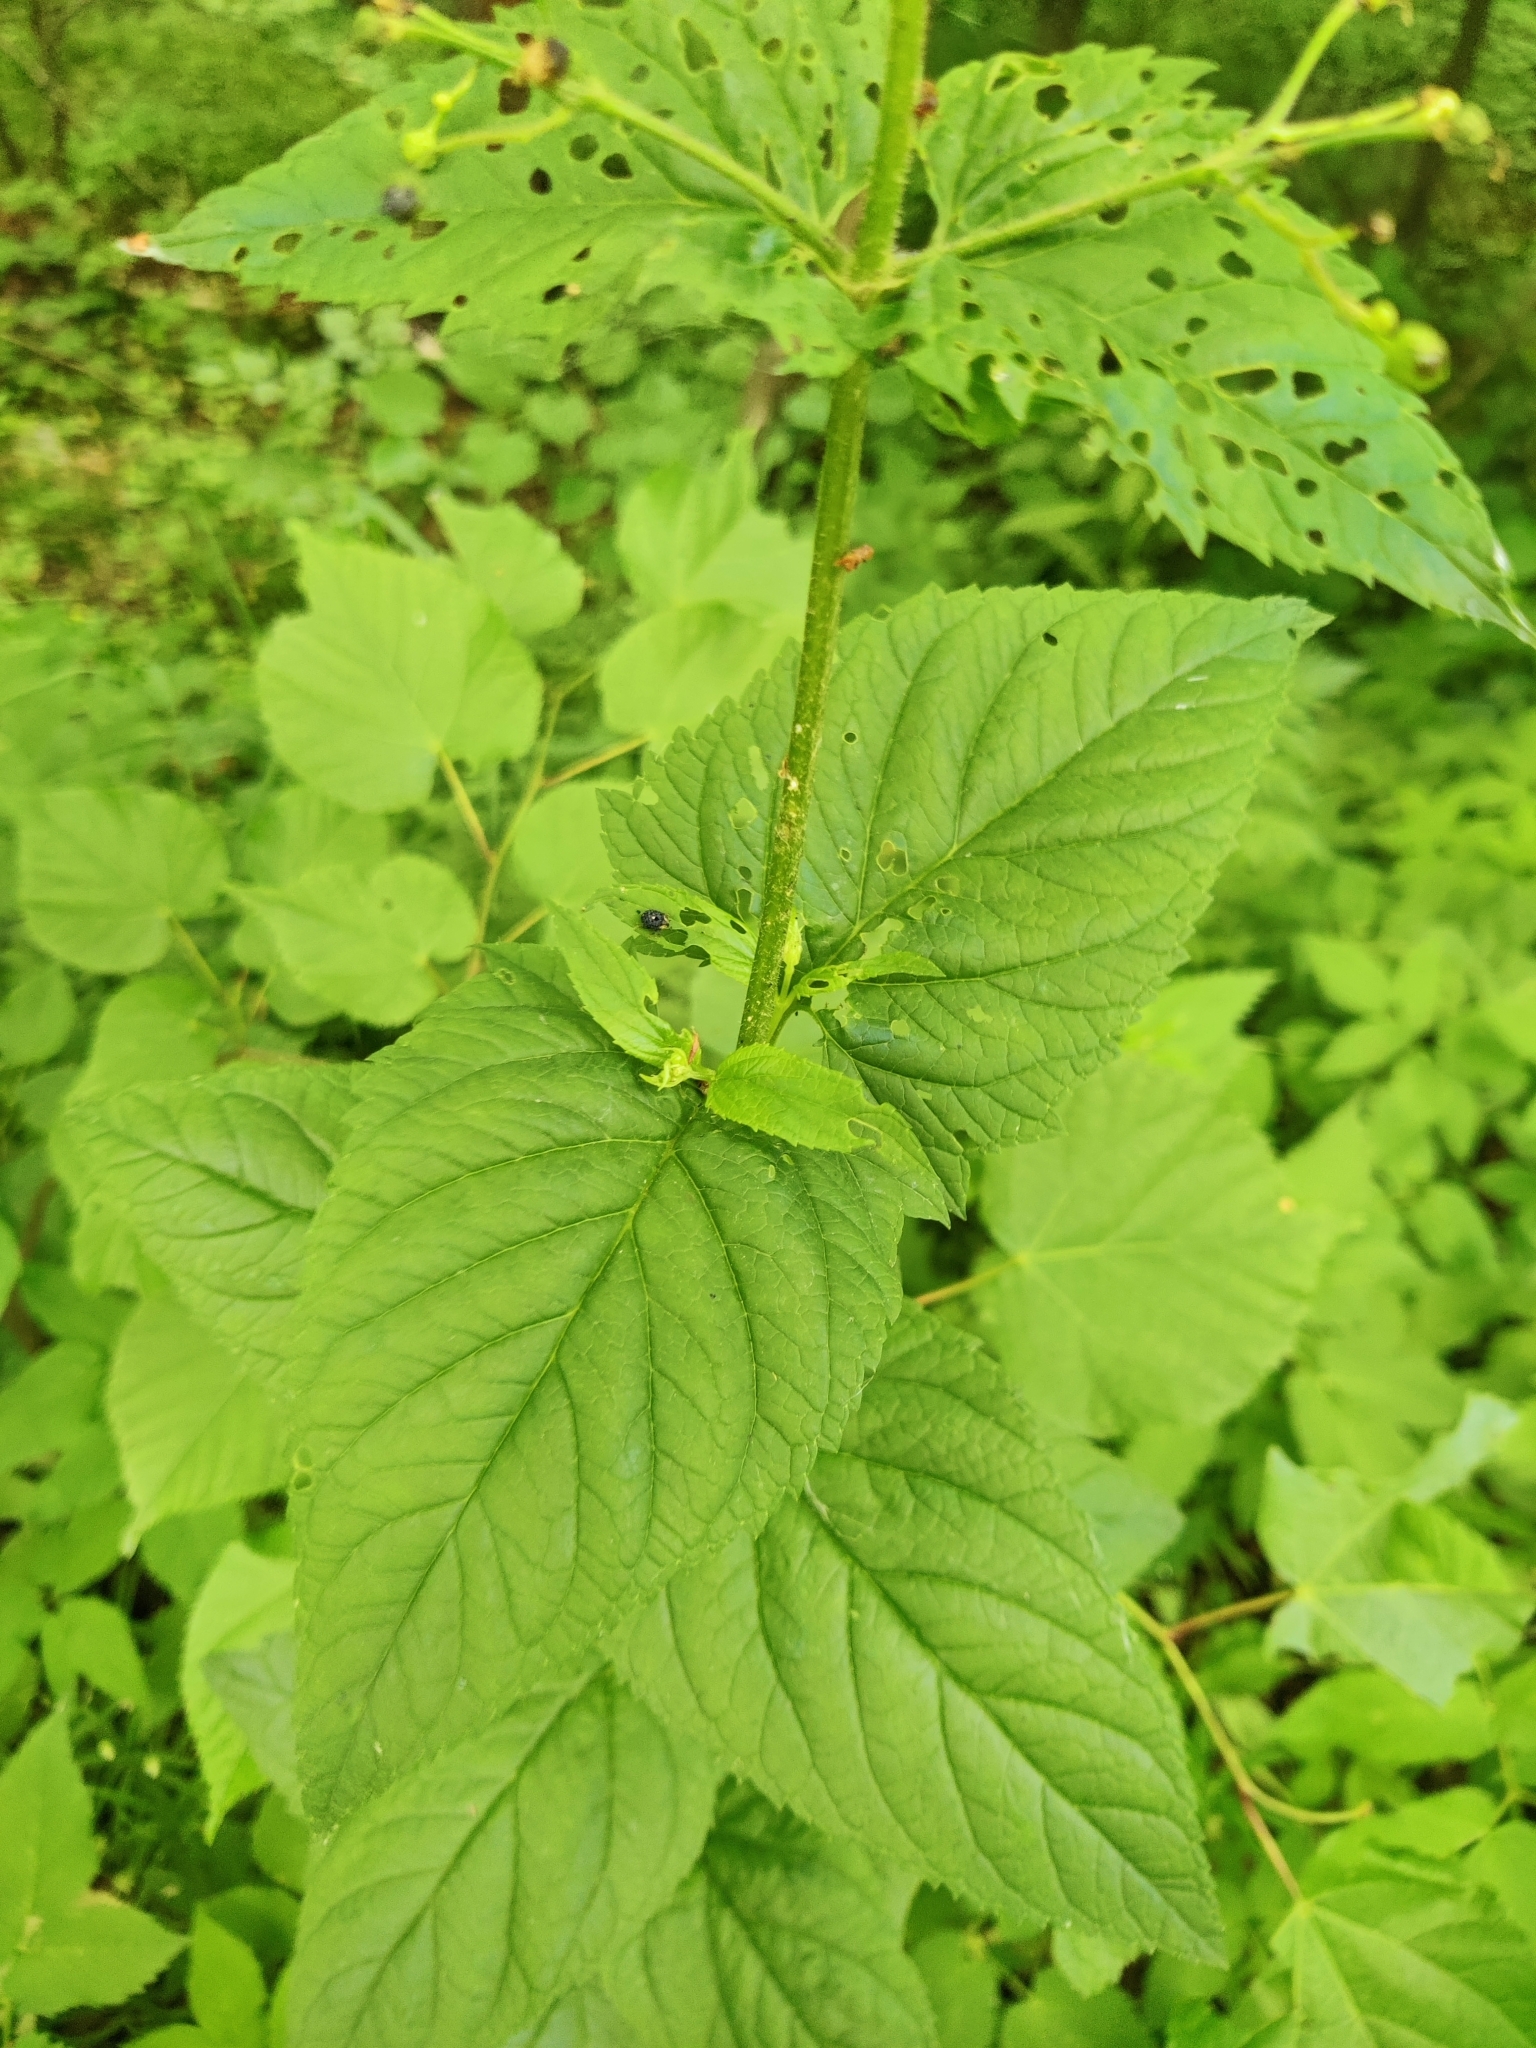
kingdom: Plantae
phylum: Tracheophyta
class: Magnoliopsida
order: Lamiales
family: Scrophulariaceae
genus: Scrophularia
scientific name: Scrophularia nodosa
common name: Common figwort
